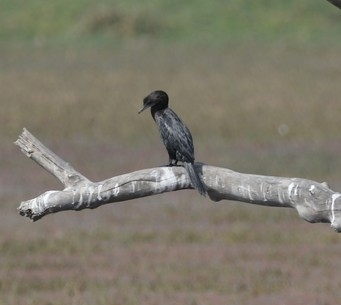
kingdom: Animalia
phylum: Chordata
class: Aves
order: Suliformes
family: Phalacrocoracidae
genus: Microcarbo
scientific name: Microcarbo niger
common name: Little cormorant
